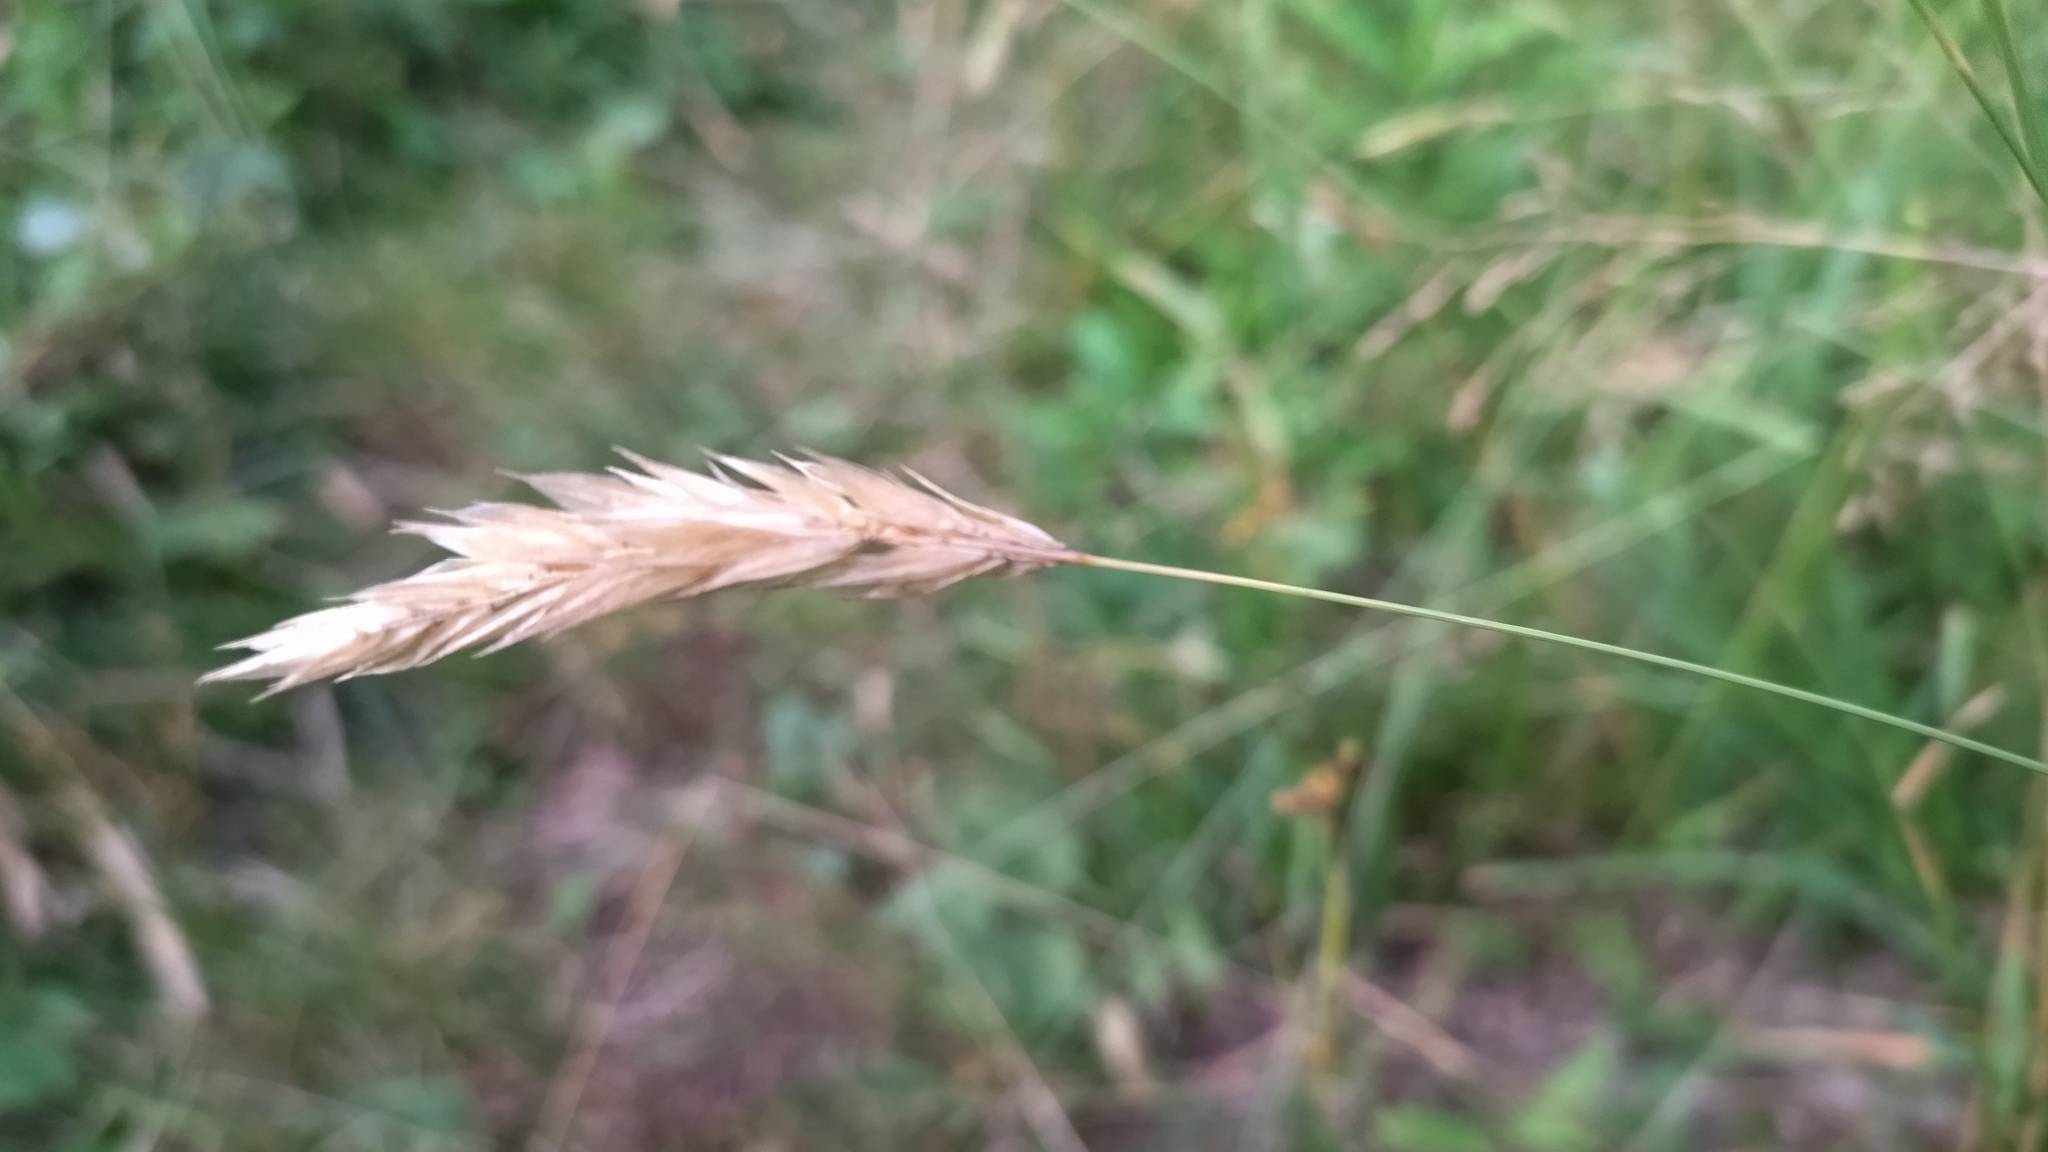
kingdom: Plantae
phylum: Tracheophyta
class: Liliopsida
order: Poales
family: Poaceae
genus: Anthoxanthum
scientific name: Anthoxanthum odoratum
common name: Sweet vernalgrass
